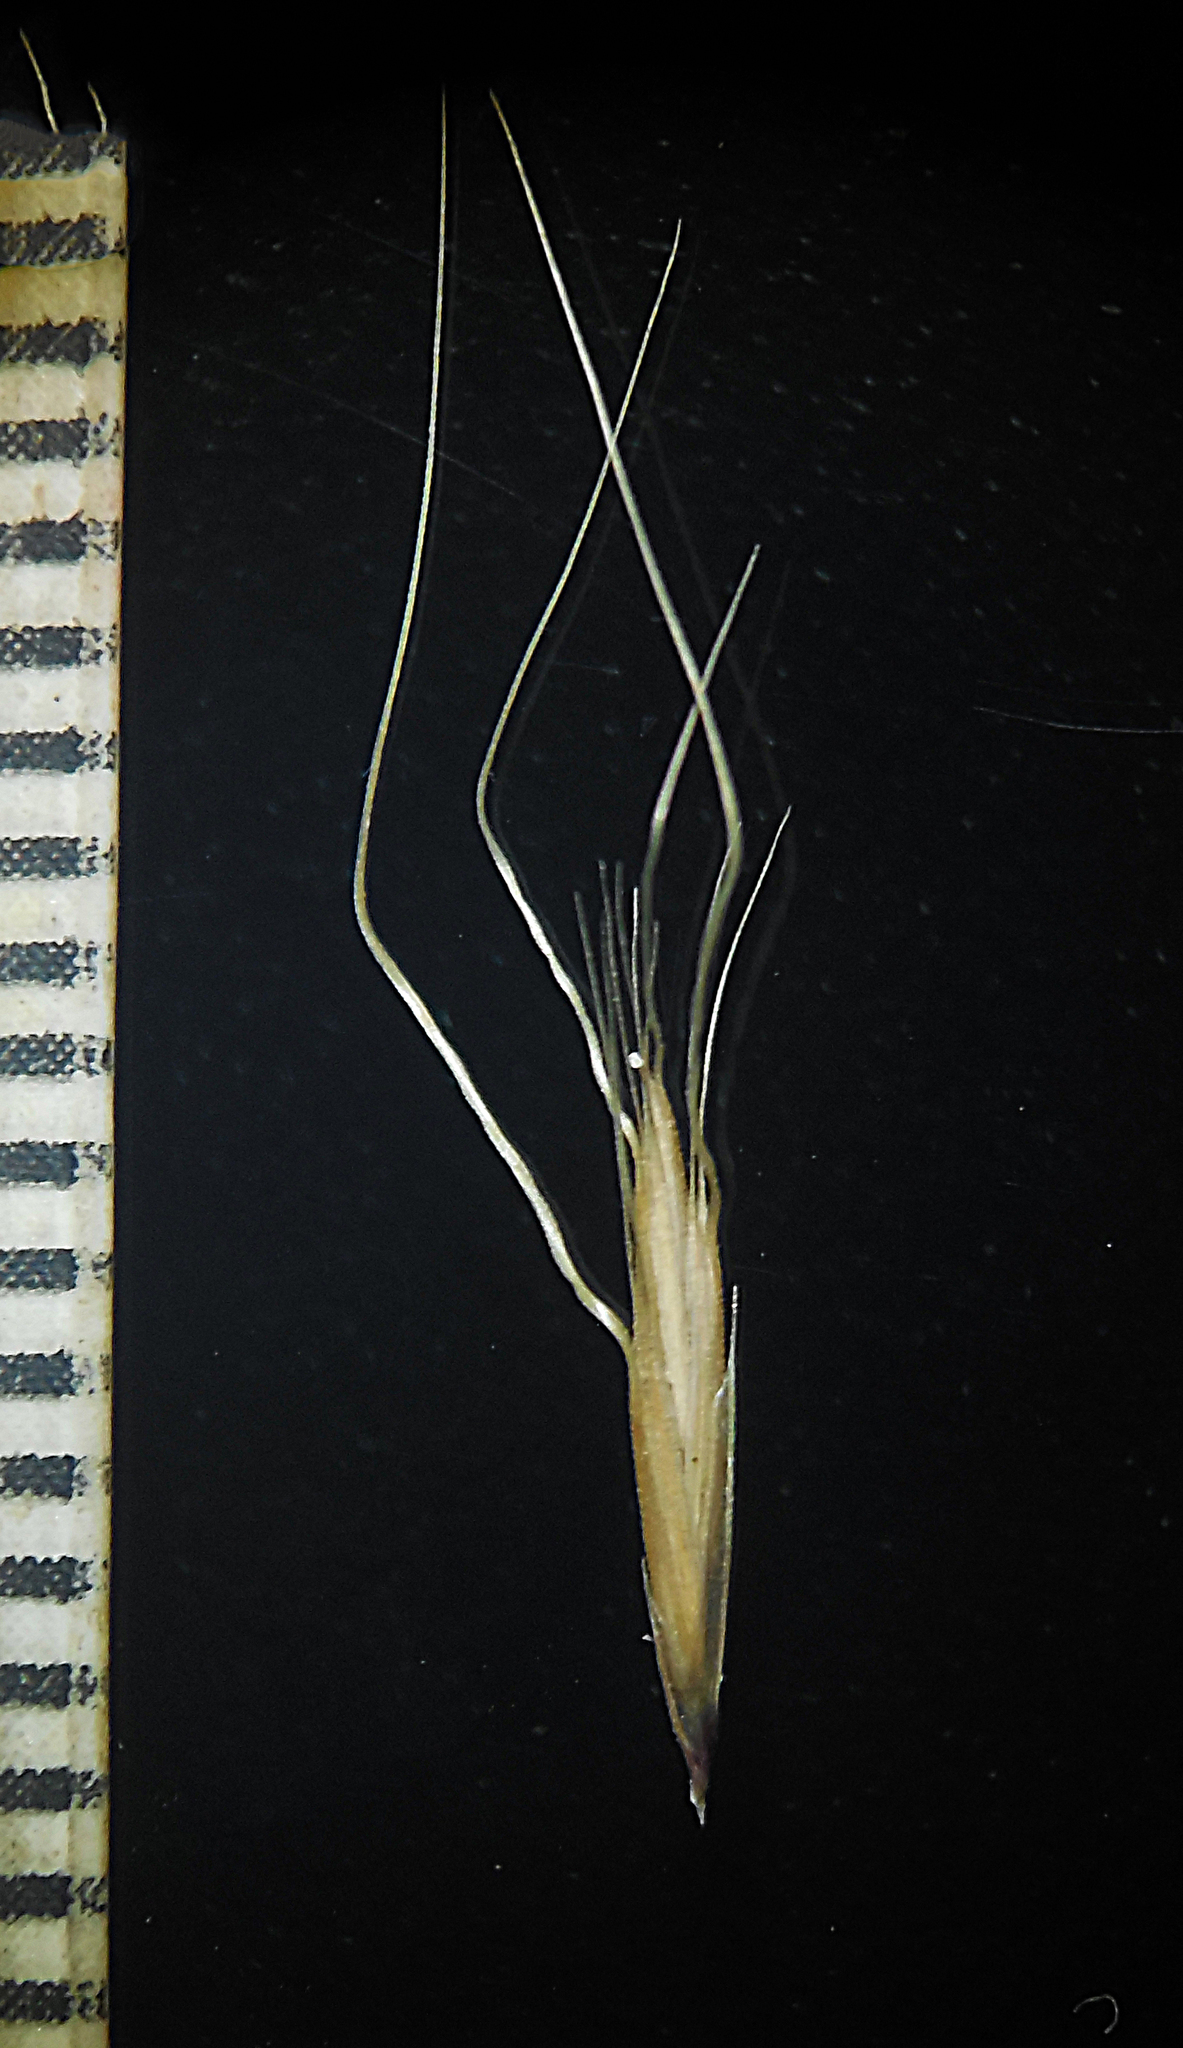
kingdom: Plantae
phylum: Tracheophyta
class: Liliopsida
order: Poales
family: Poaceae
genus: Indopoa
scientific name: Indopoa paupercula
